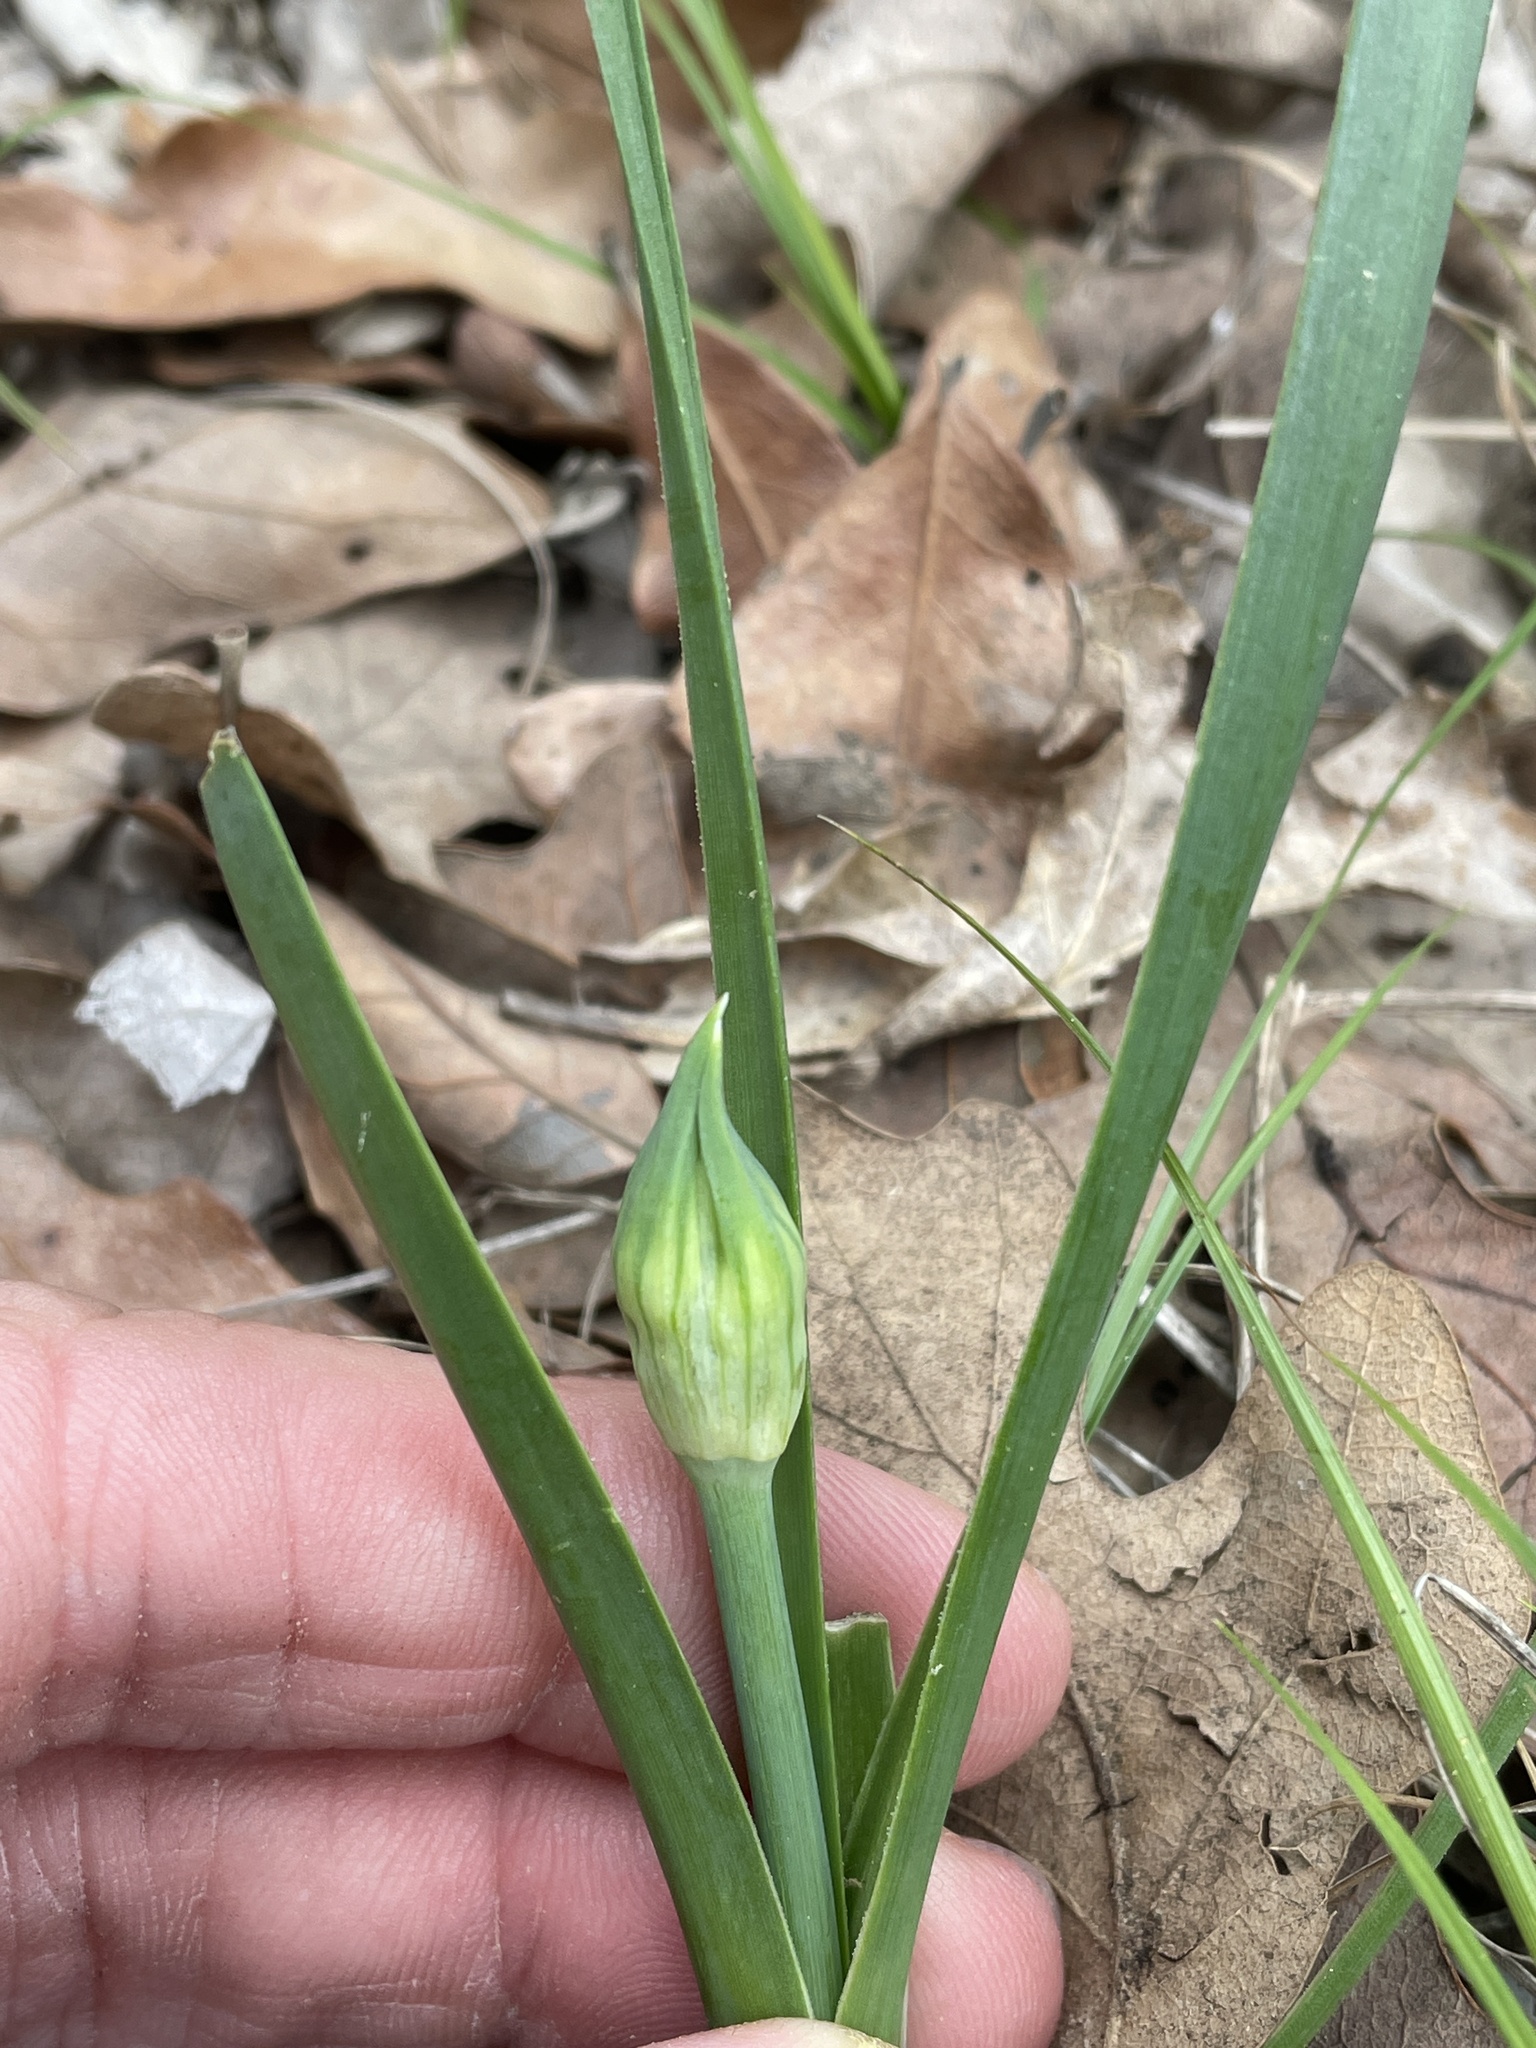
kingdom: Plantae
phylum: Tracheophyta
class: Liliopsida
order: Asparagales
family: Amaryllidaceae
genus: Allium
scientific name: Allium canadense
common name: Meadow garlic
